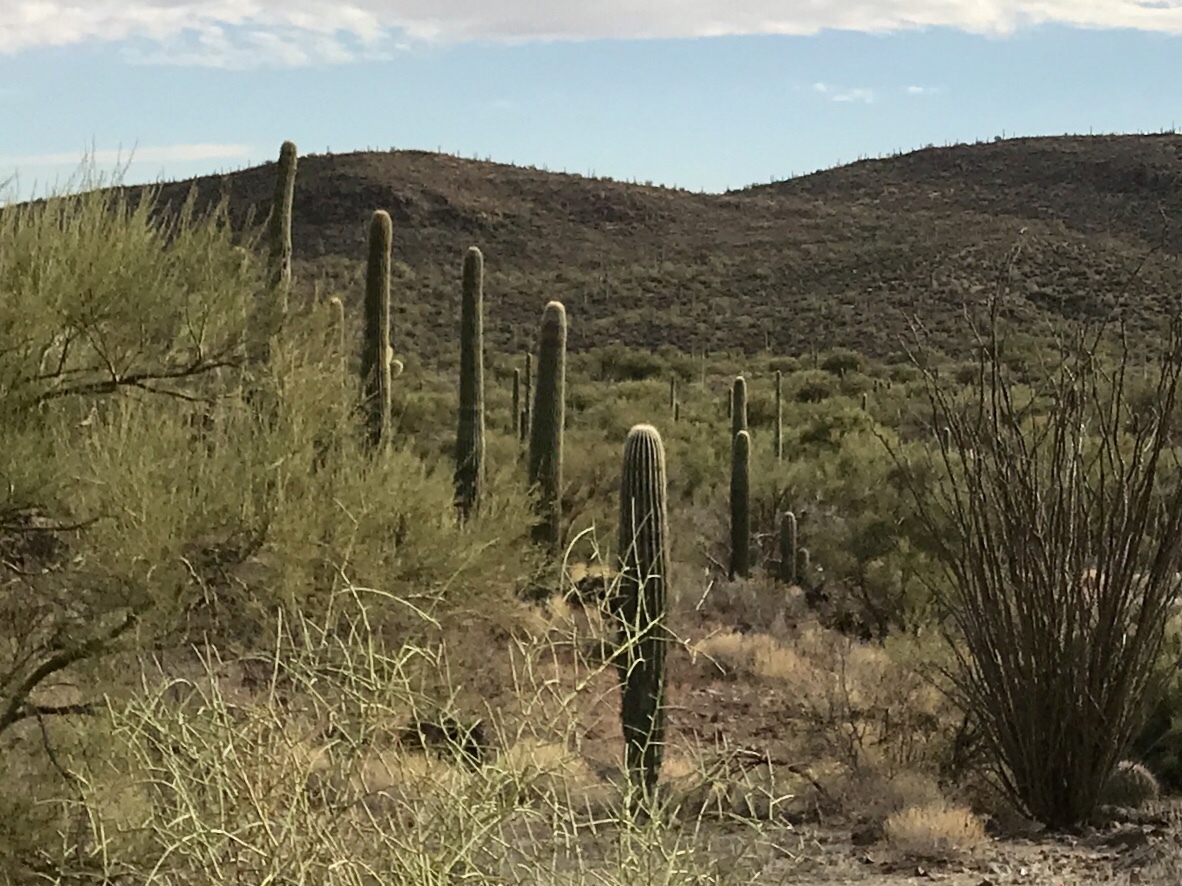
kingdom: Plantae
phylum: Tracheophyta
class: Magnoliopsida
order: Caryophyllales
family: Cactaceae
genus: Carnegiea
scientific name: Carnegiea gigantea
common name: Saguaro
